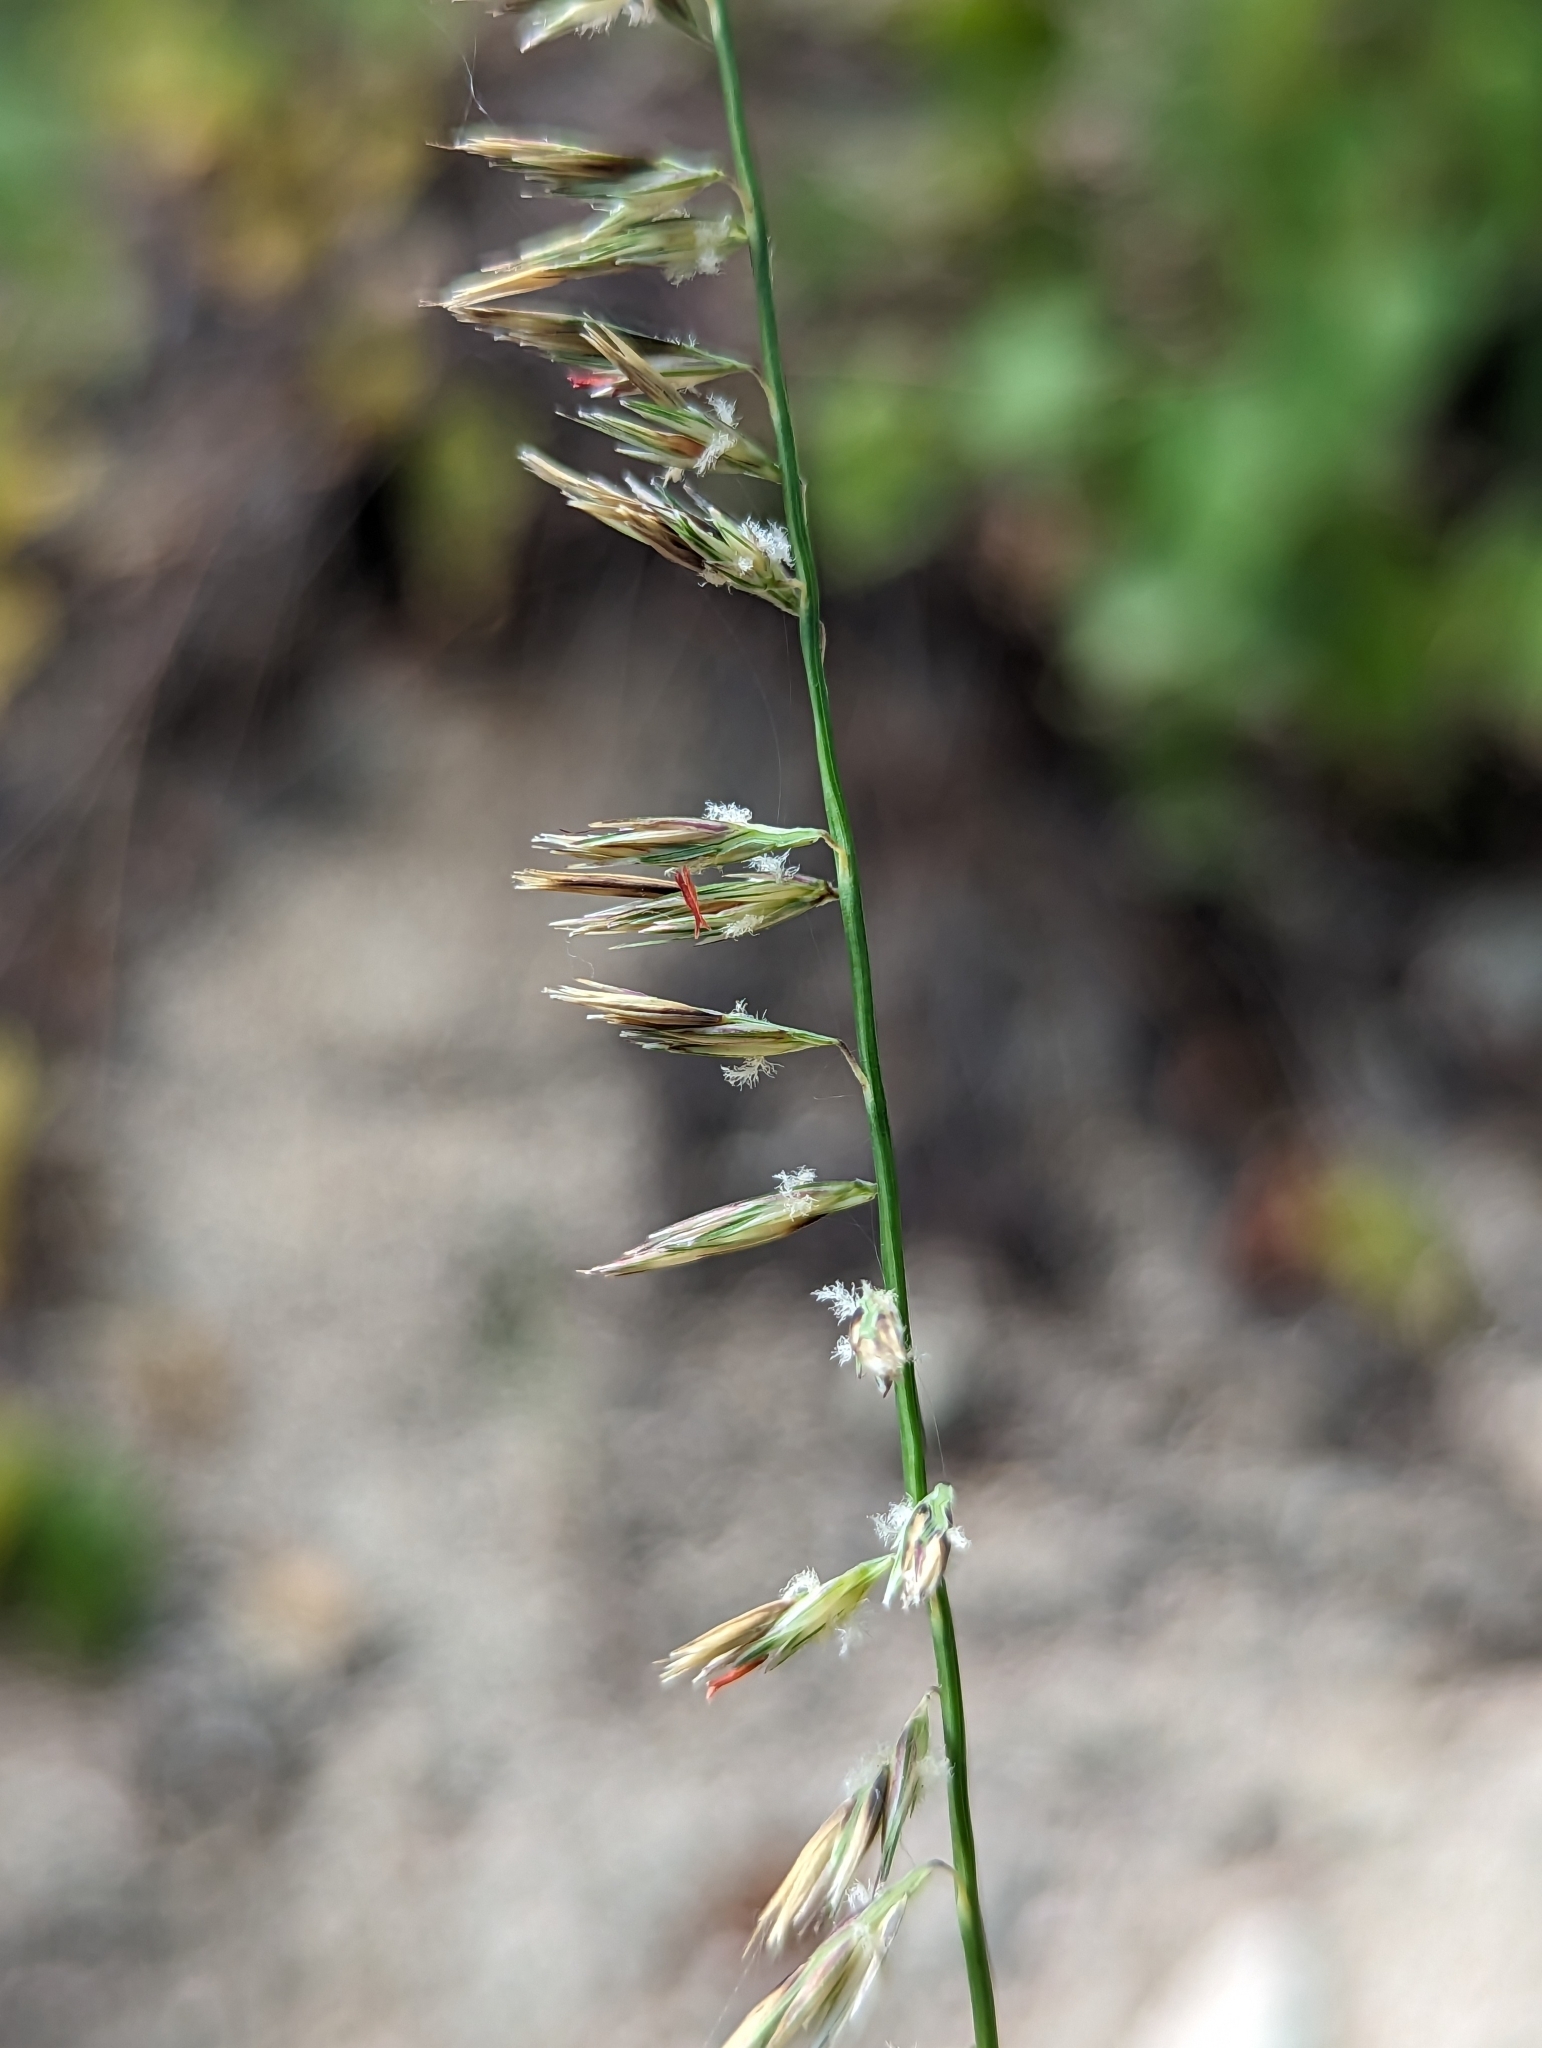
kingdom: Plantae
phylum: Tracheophyta
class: Liliopsida
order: Poales
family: Poaceae
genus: Bouteloua
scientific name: Bouteloua reflexa
